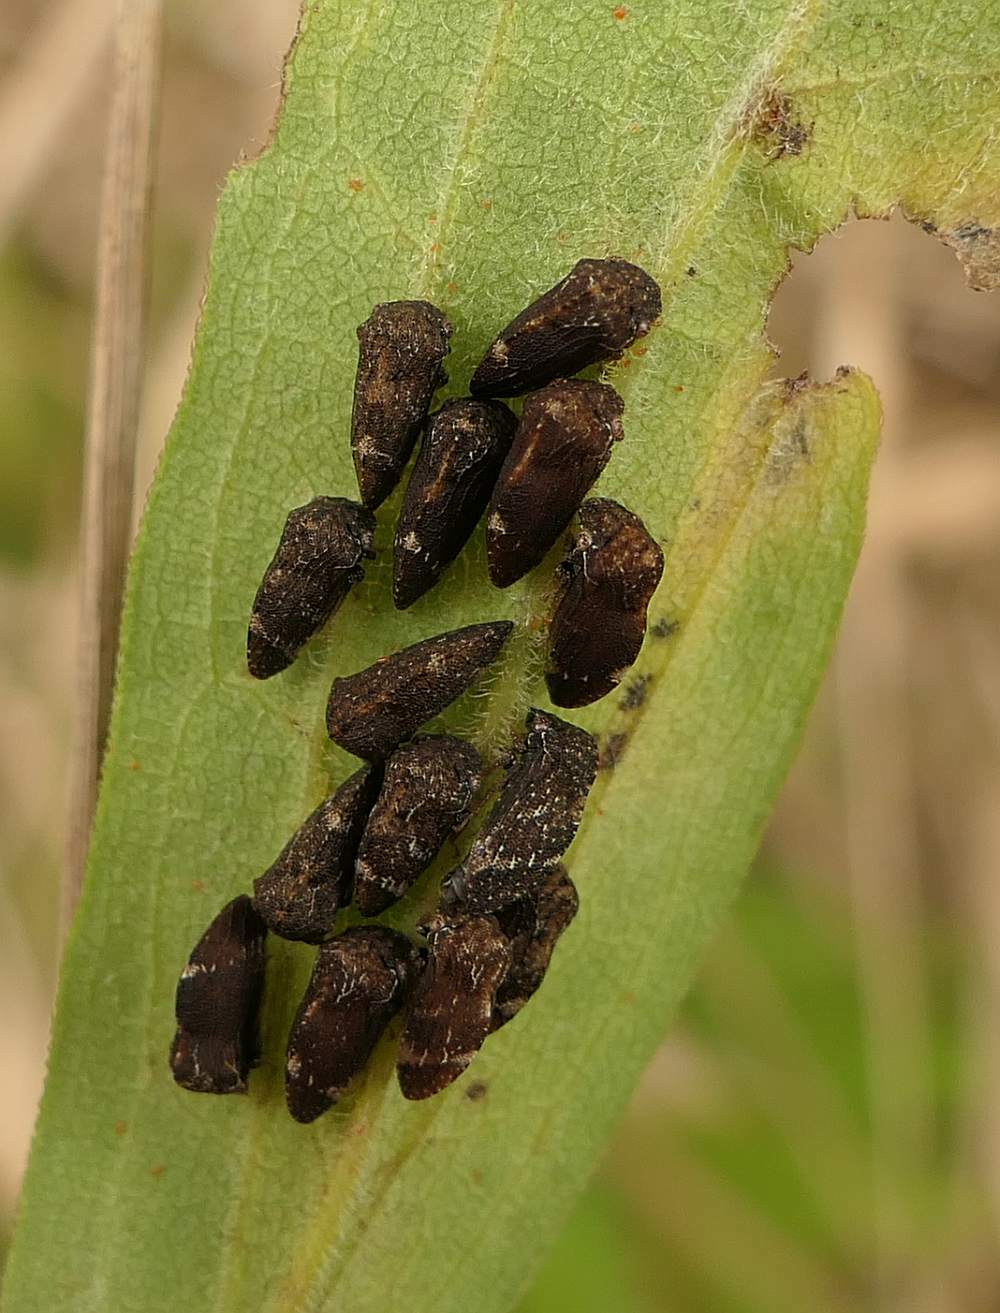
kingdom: Animalia
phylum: Arthropoda
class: Insecta
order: Hemiptera
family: Membracidae
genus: Publilia
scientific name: Publilia concava
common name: Aster treehopper
